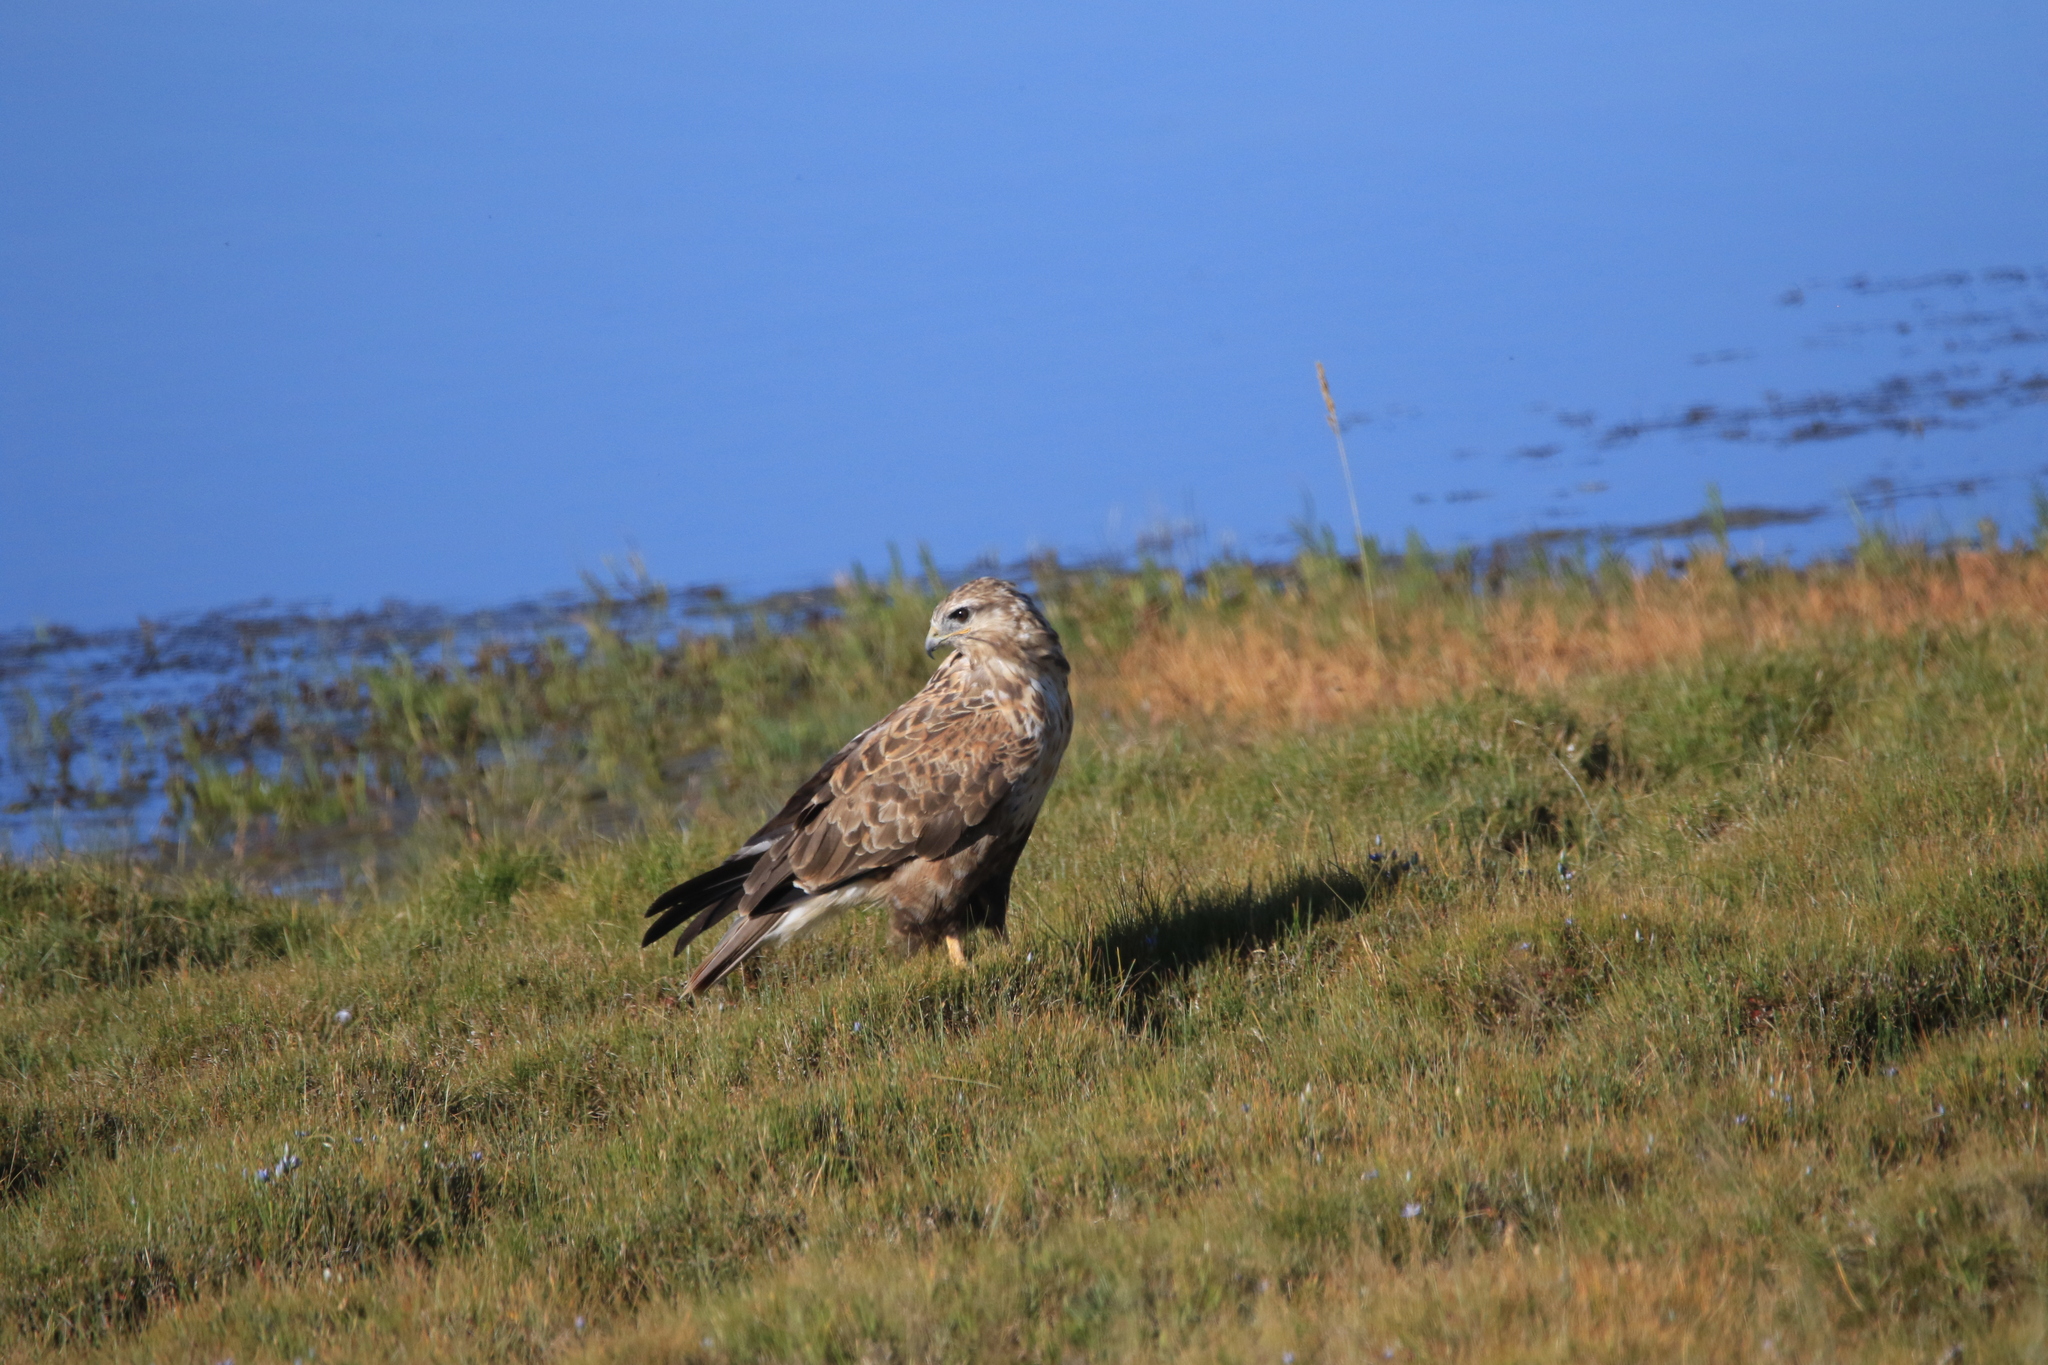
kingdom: Animalia
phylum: Chordata
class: Aves
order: Accipitriformes
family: Accipitridae
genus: Buteo
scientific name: Buteo hemilasius
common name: Upland buzzard
